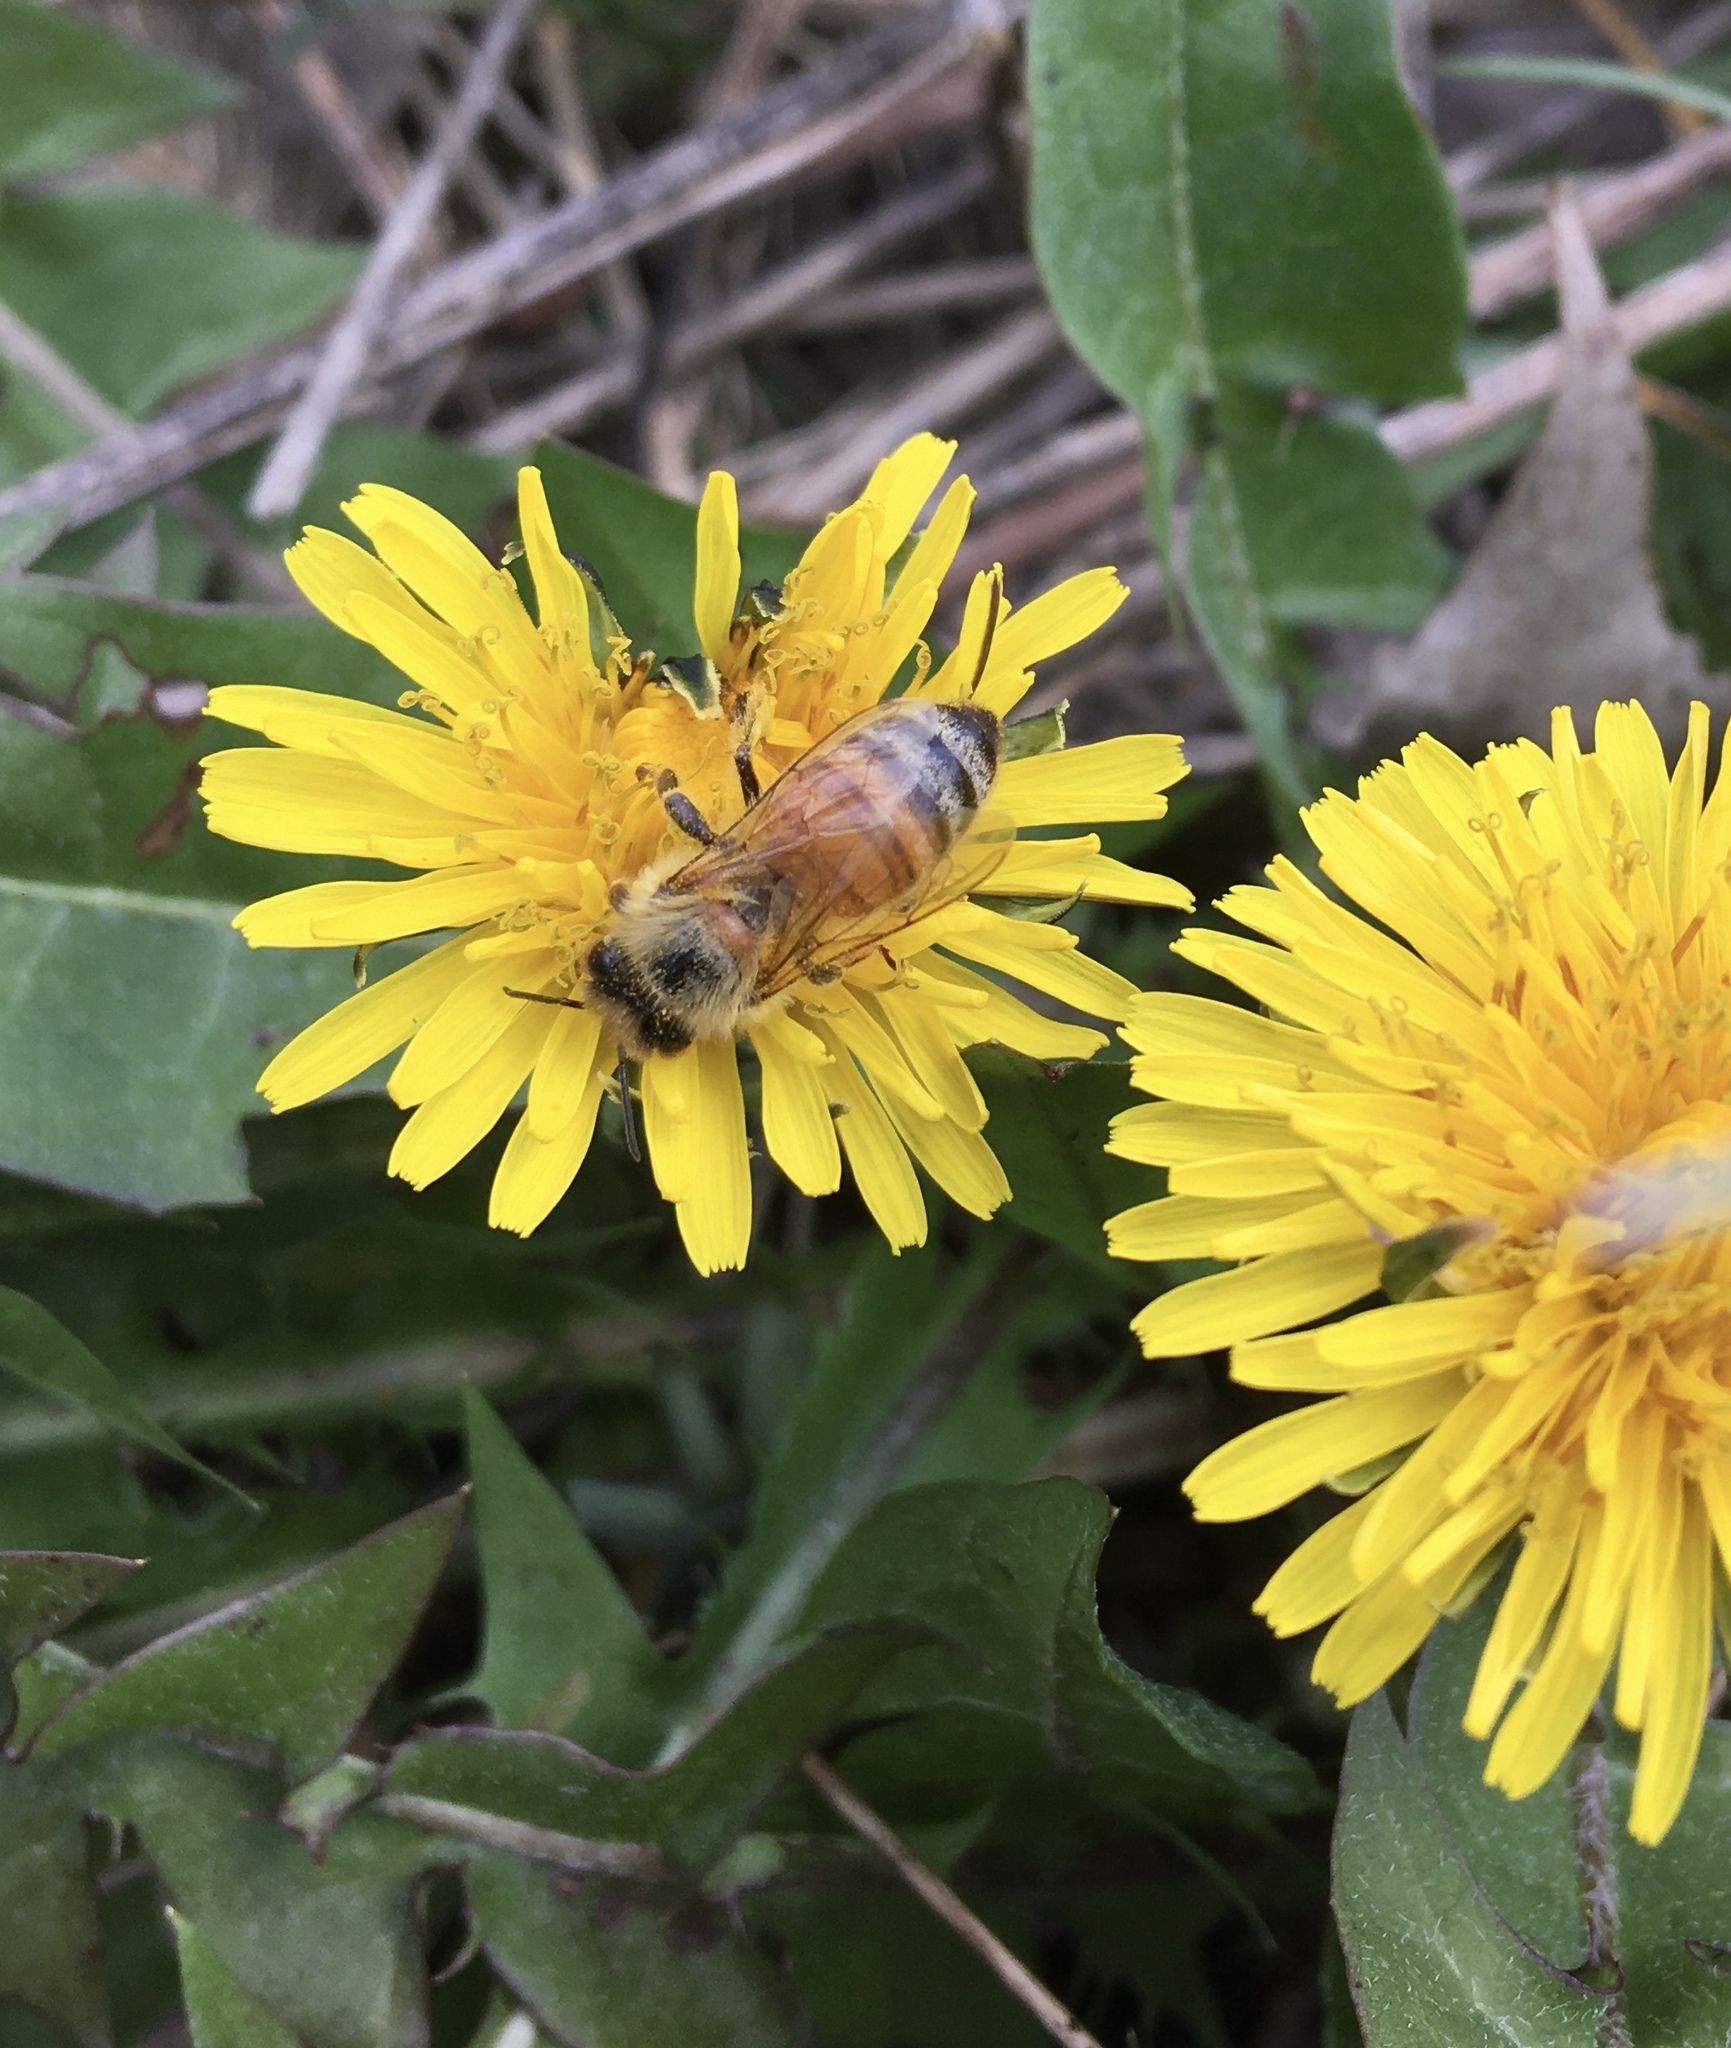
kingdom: Animalia
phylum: Arthropoda
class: Insecta
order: Hymenoptera
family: Apidae
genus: Apis
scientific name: Apis mellifera
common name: Honey bee
